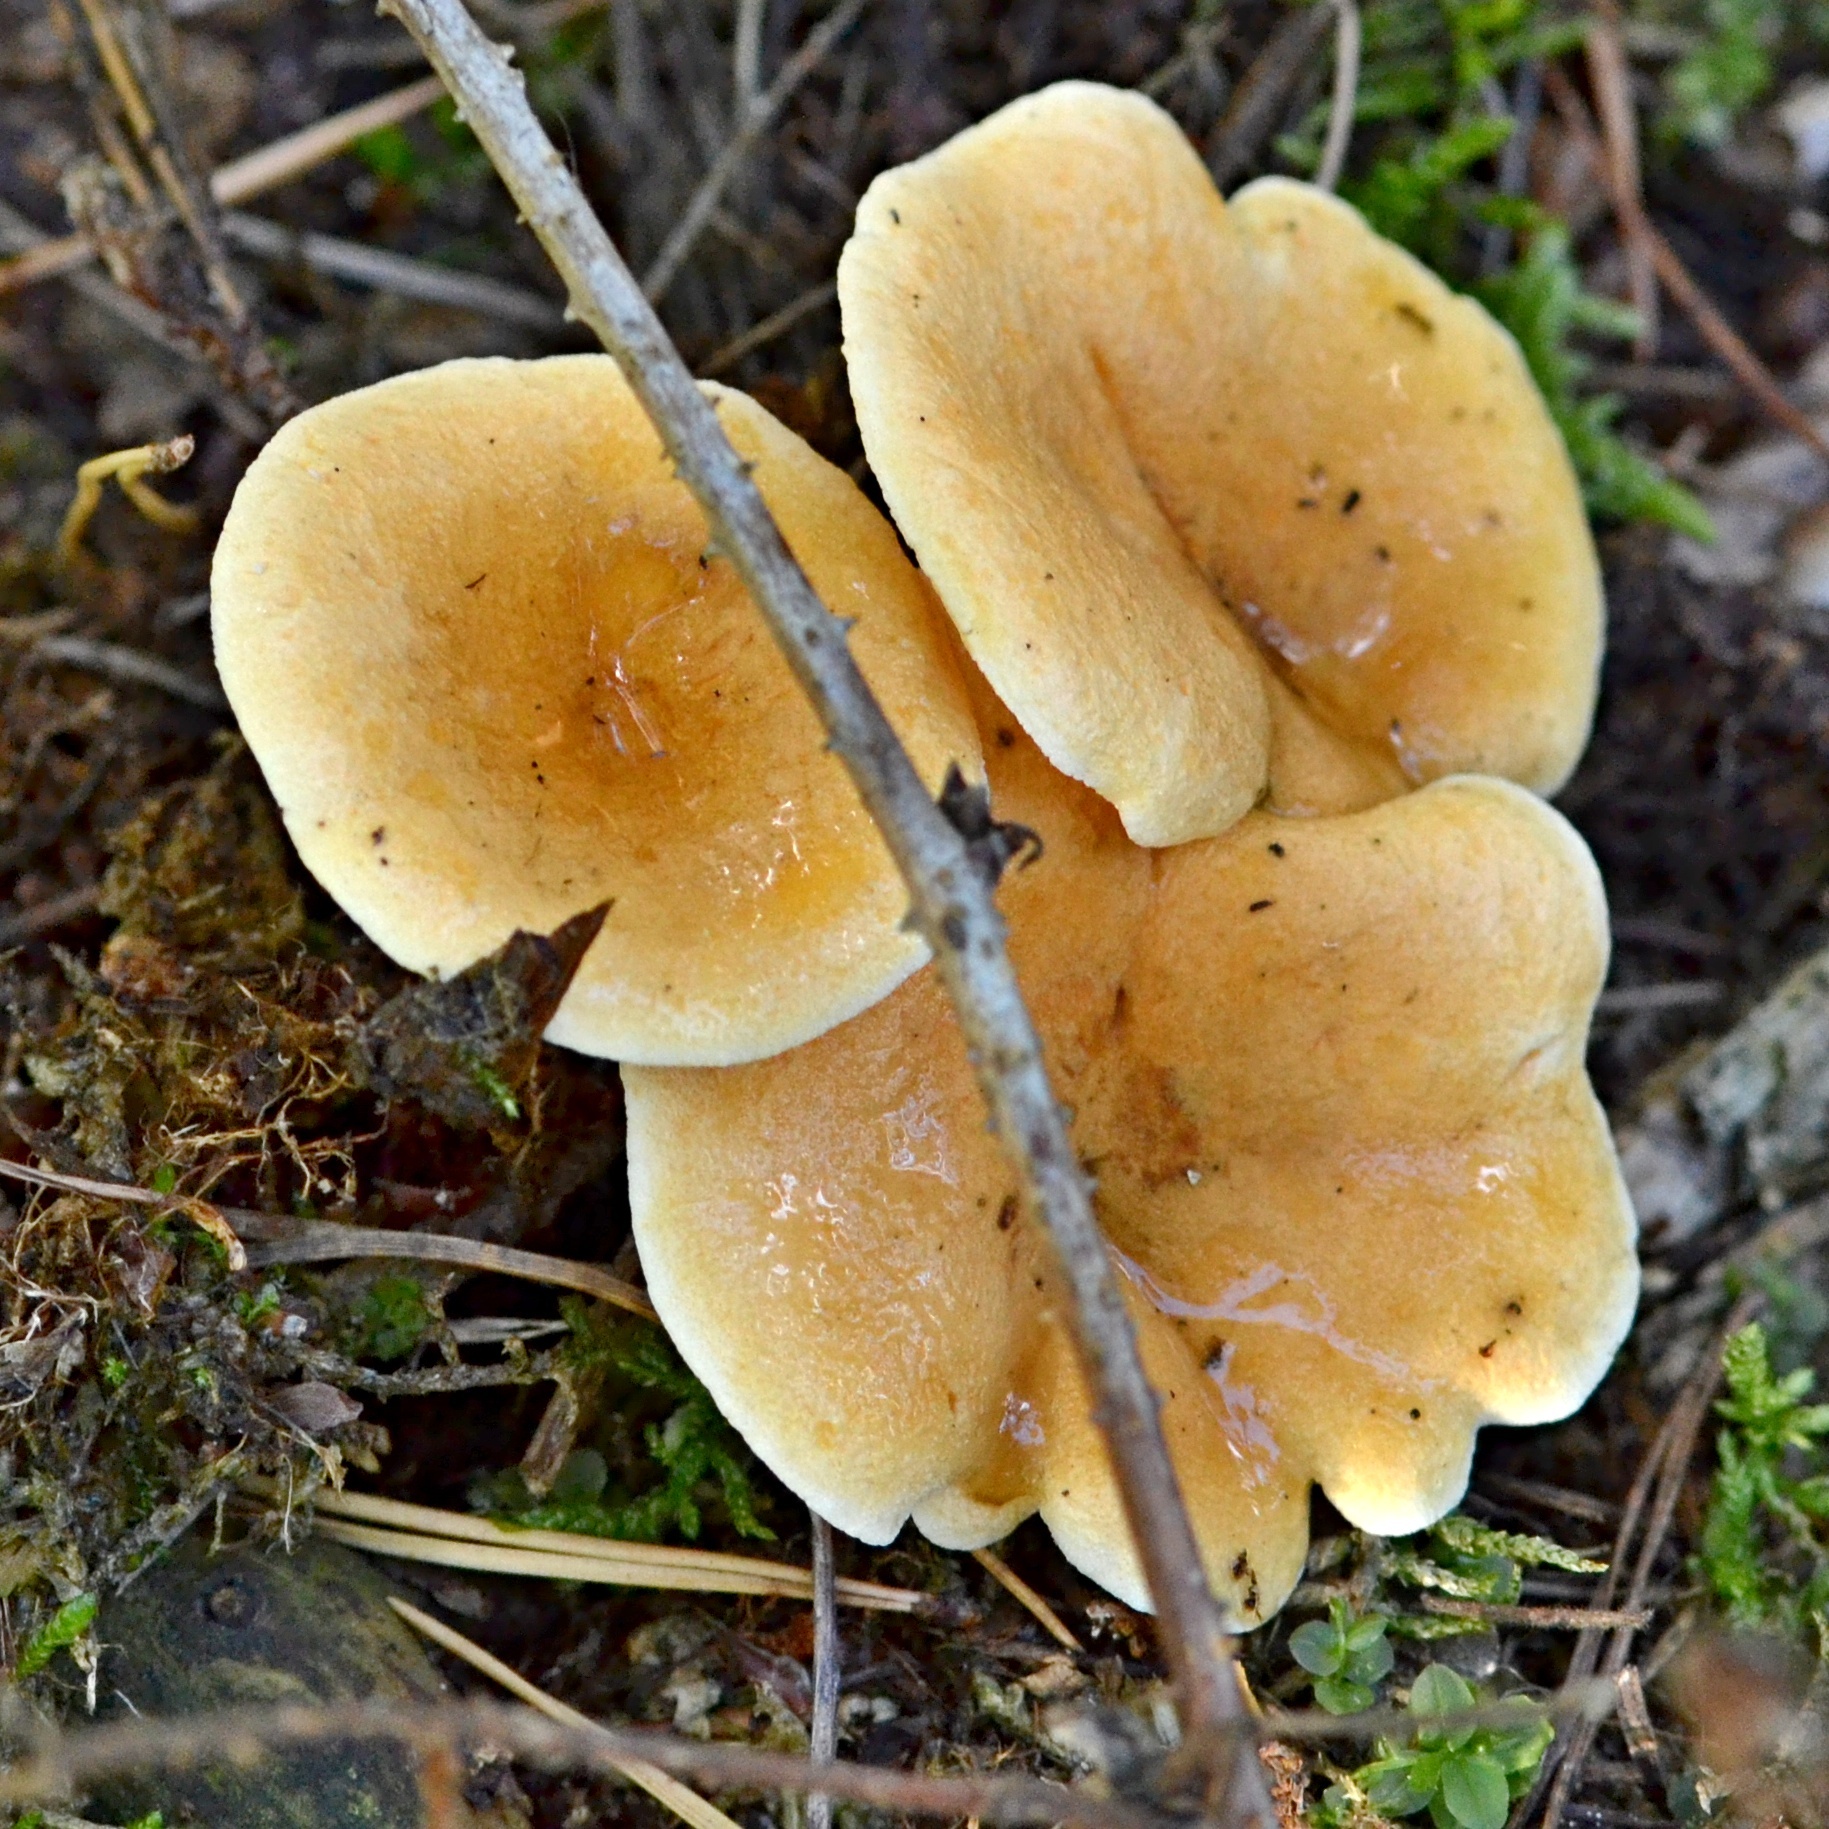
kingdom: Fungi
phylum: Basidiomycota
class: Agaricomycetes
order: Boletales
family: Hygrophoropsidaceae
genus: Hygrophoropsis
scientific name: Hygrophoropsis aurantiaca
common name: False chanterelle
